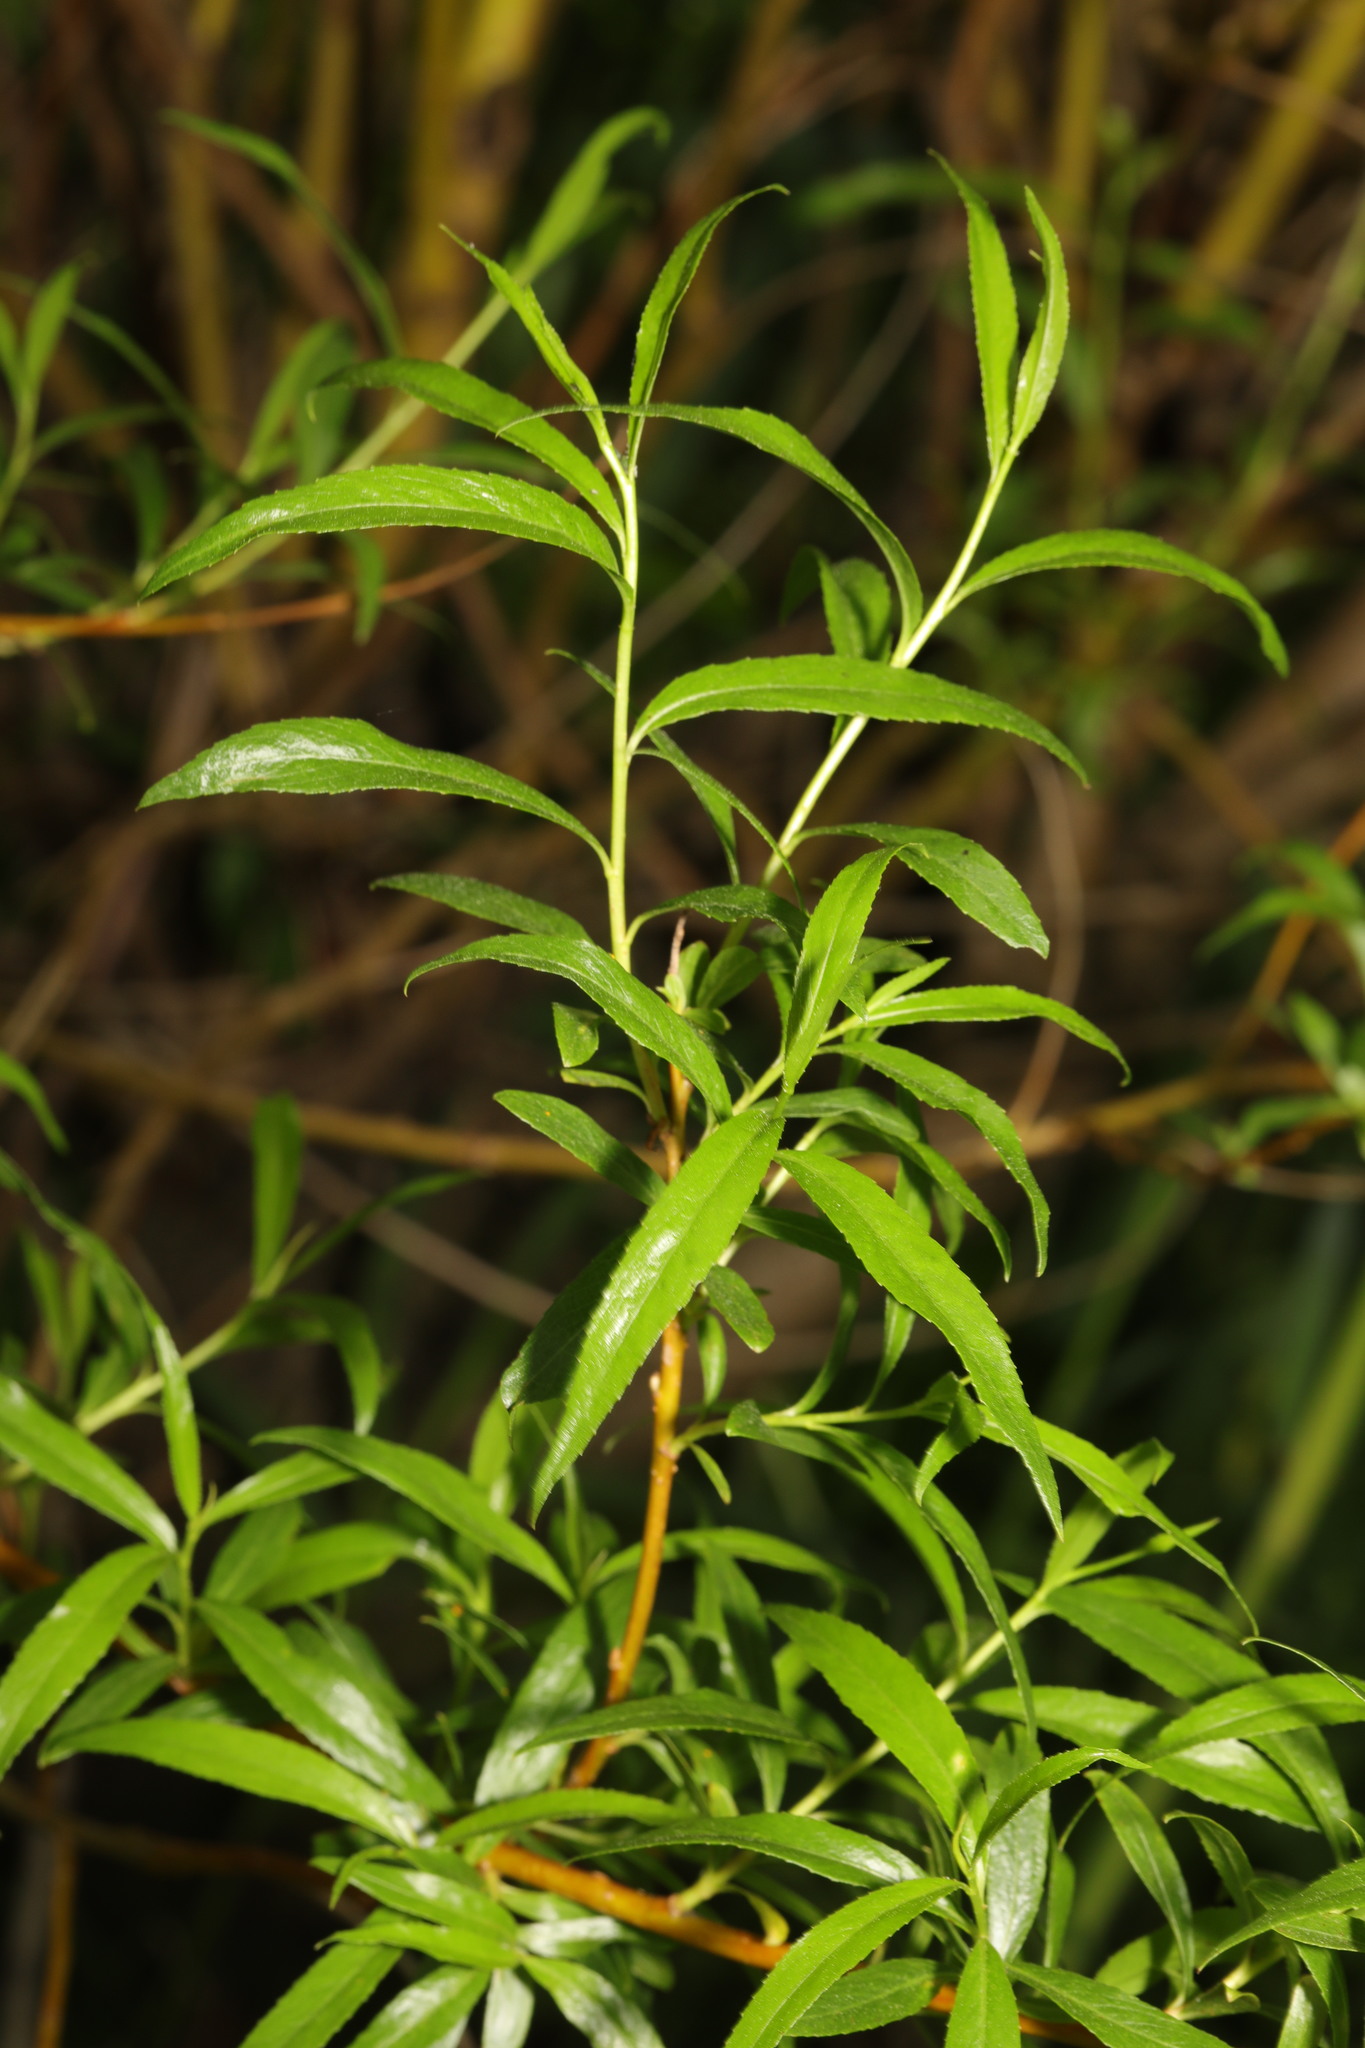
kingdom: Plantae
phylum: Tracheophyta
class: Magnoliopsida
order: Malpighiales
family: Salicaceae
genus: Salix
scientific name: Salix fragilis
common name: Crack willow
